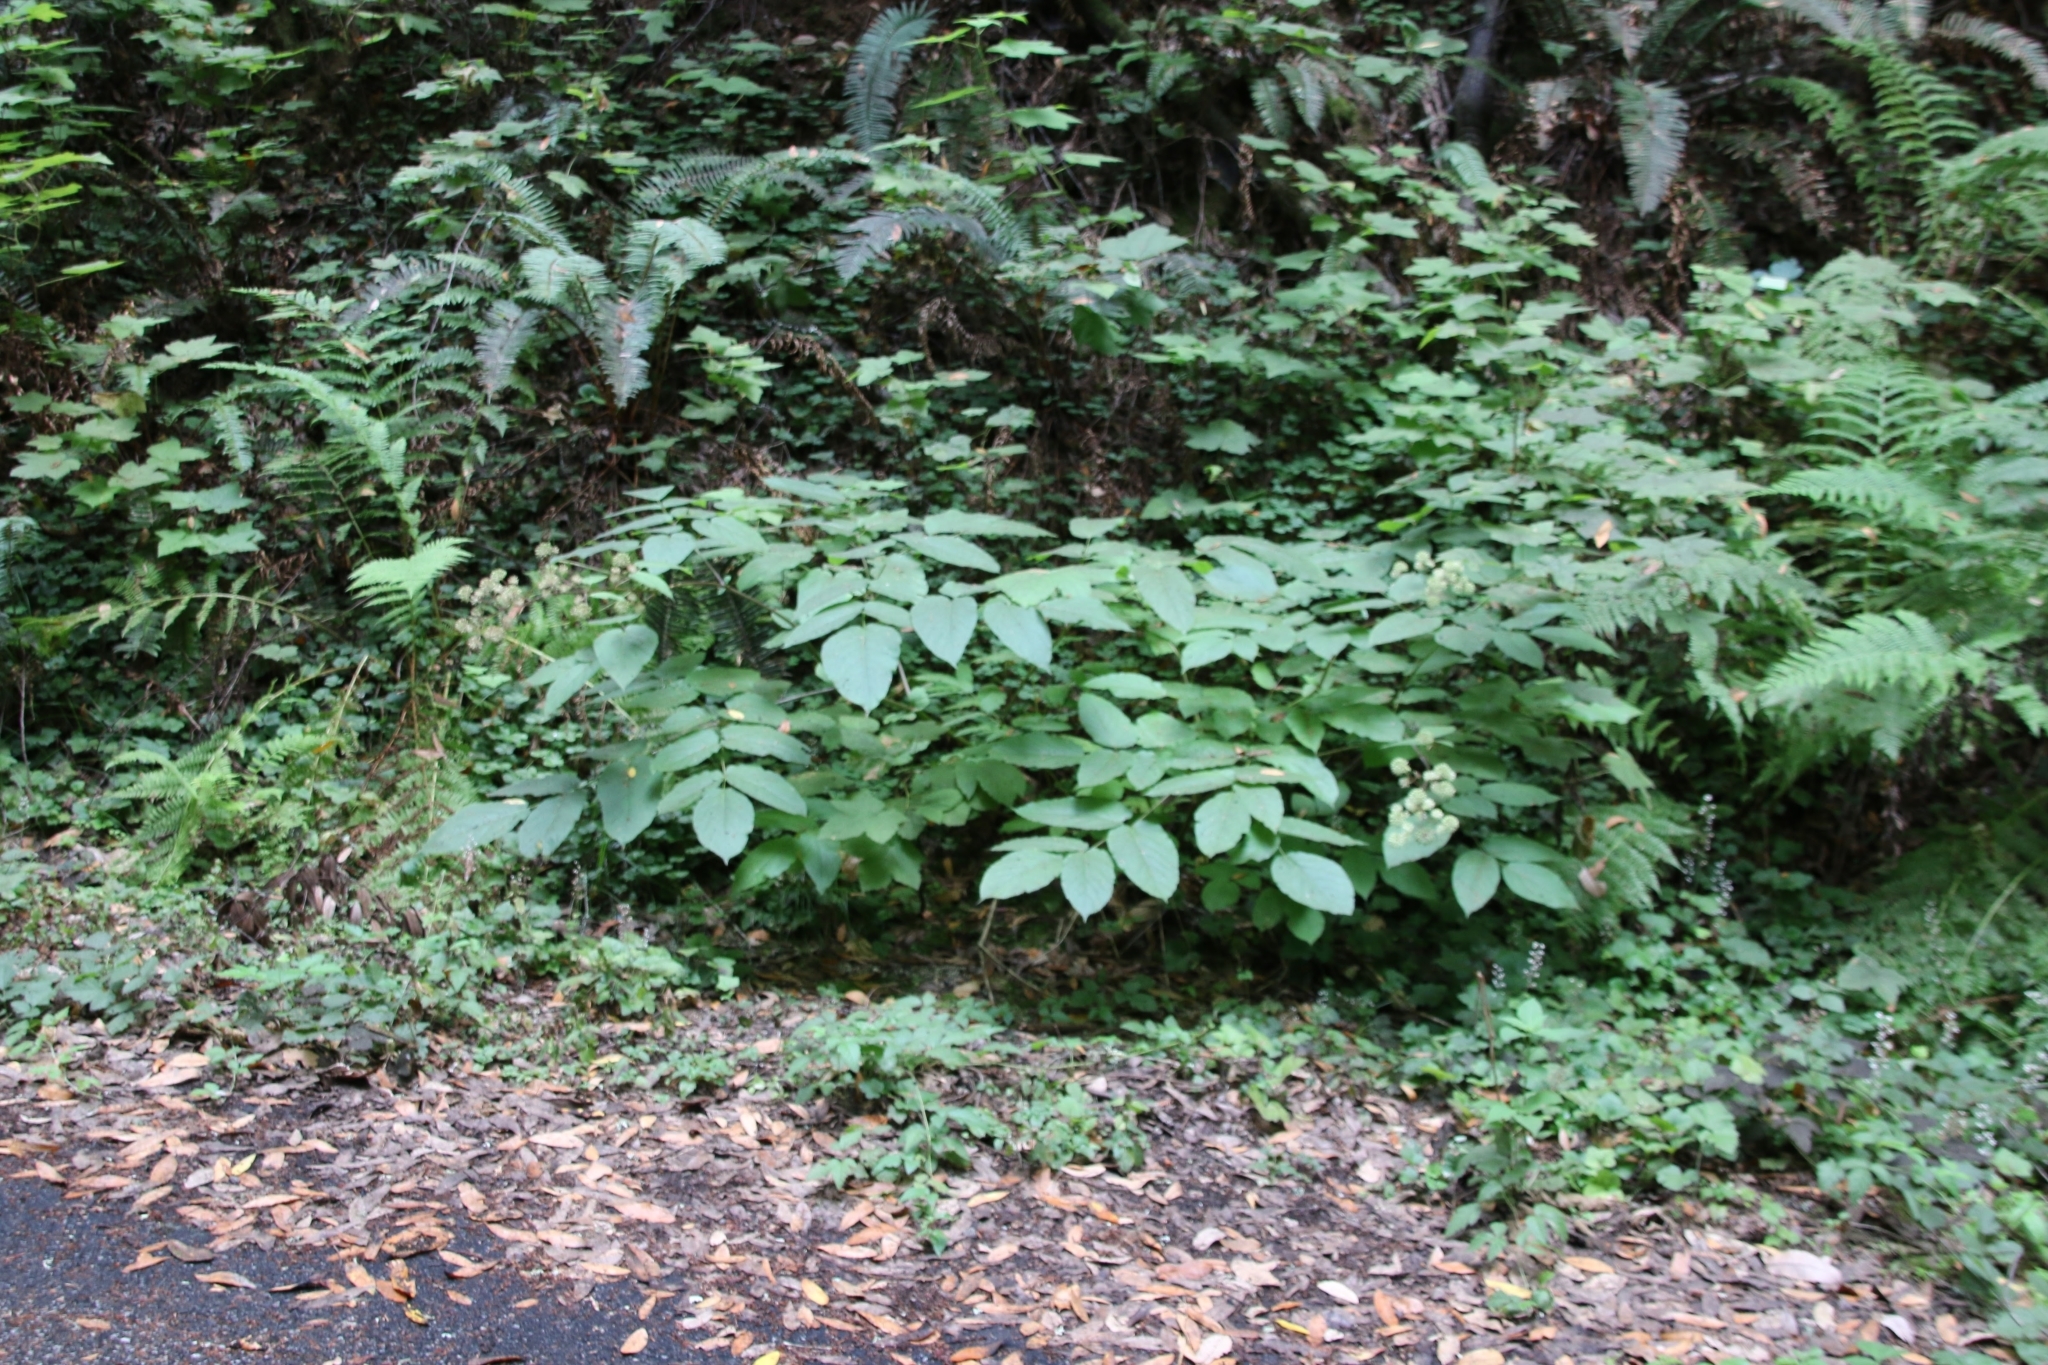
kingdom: Plantae
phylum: Tracheophyta
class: Magnoliopsida
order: Apiales
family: Araliaceae
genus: Aralia
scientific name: Aralia californica
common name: California-ginseng
